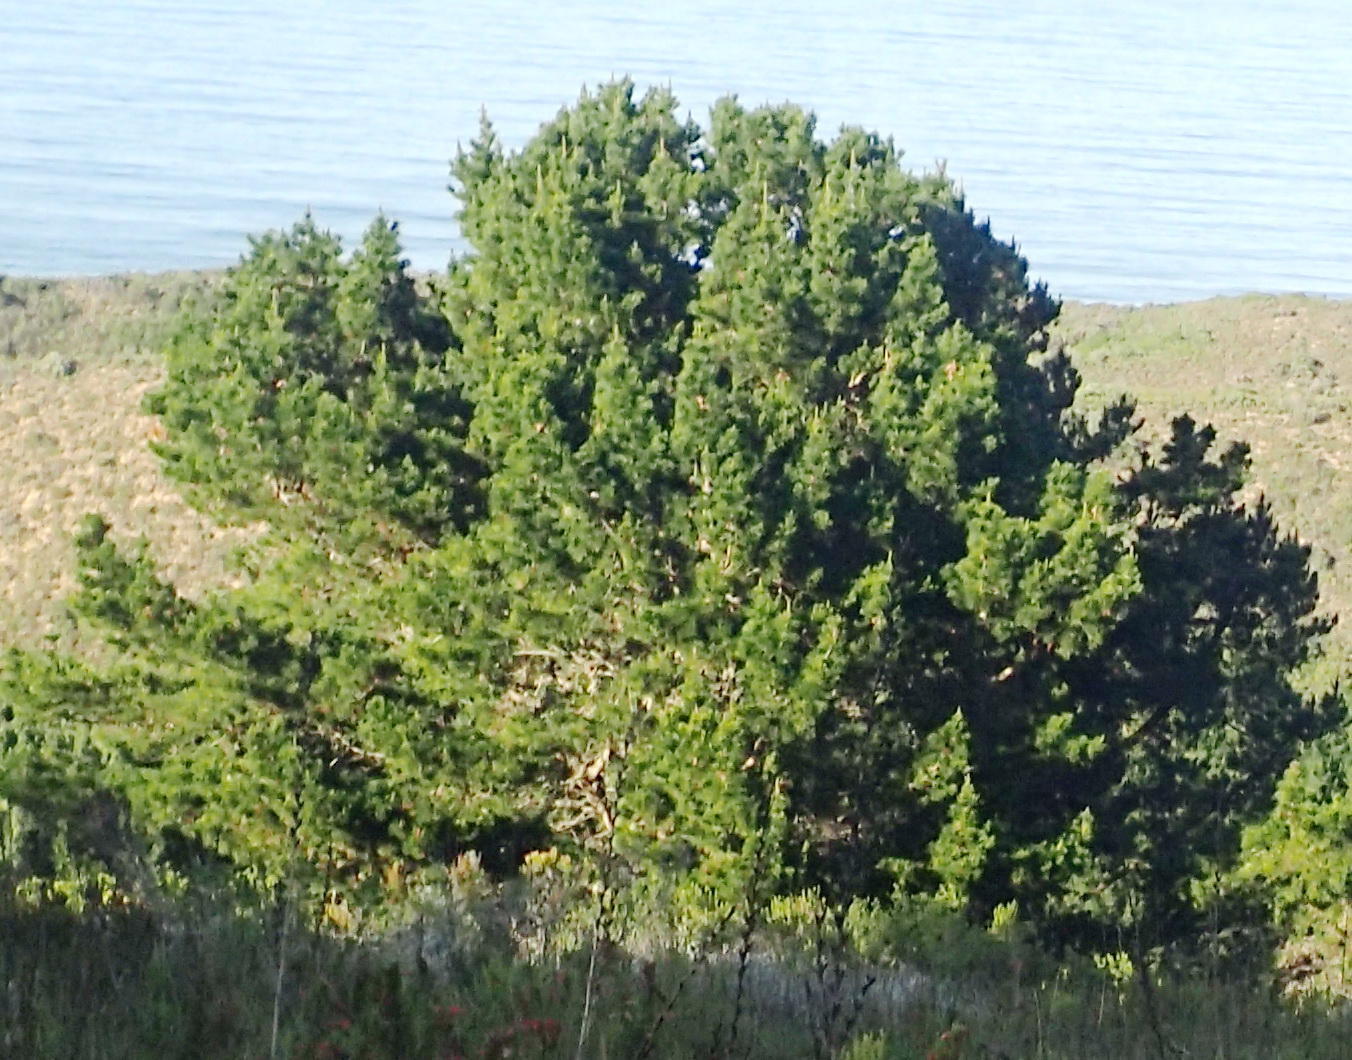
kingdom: Plantae
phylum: Tracheophyta
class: Pinopsida
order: Pinales
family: Pinaceae
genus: Pinus
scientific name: Pinus radiata
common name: Monterey pine
